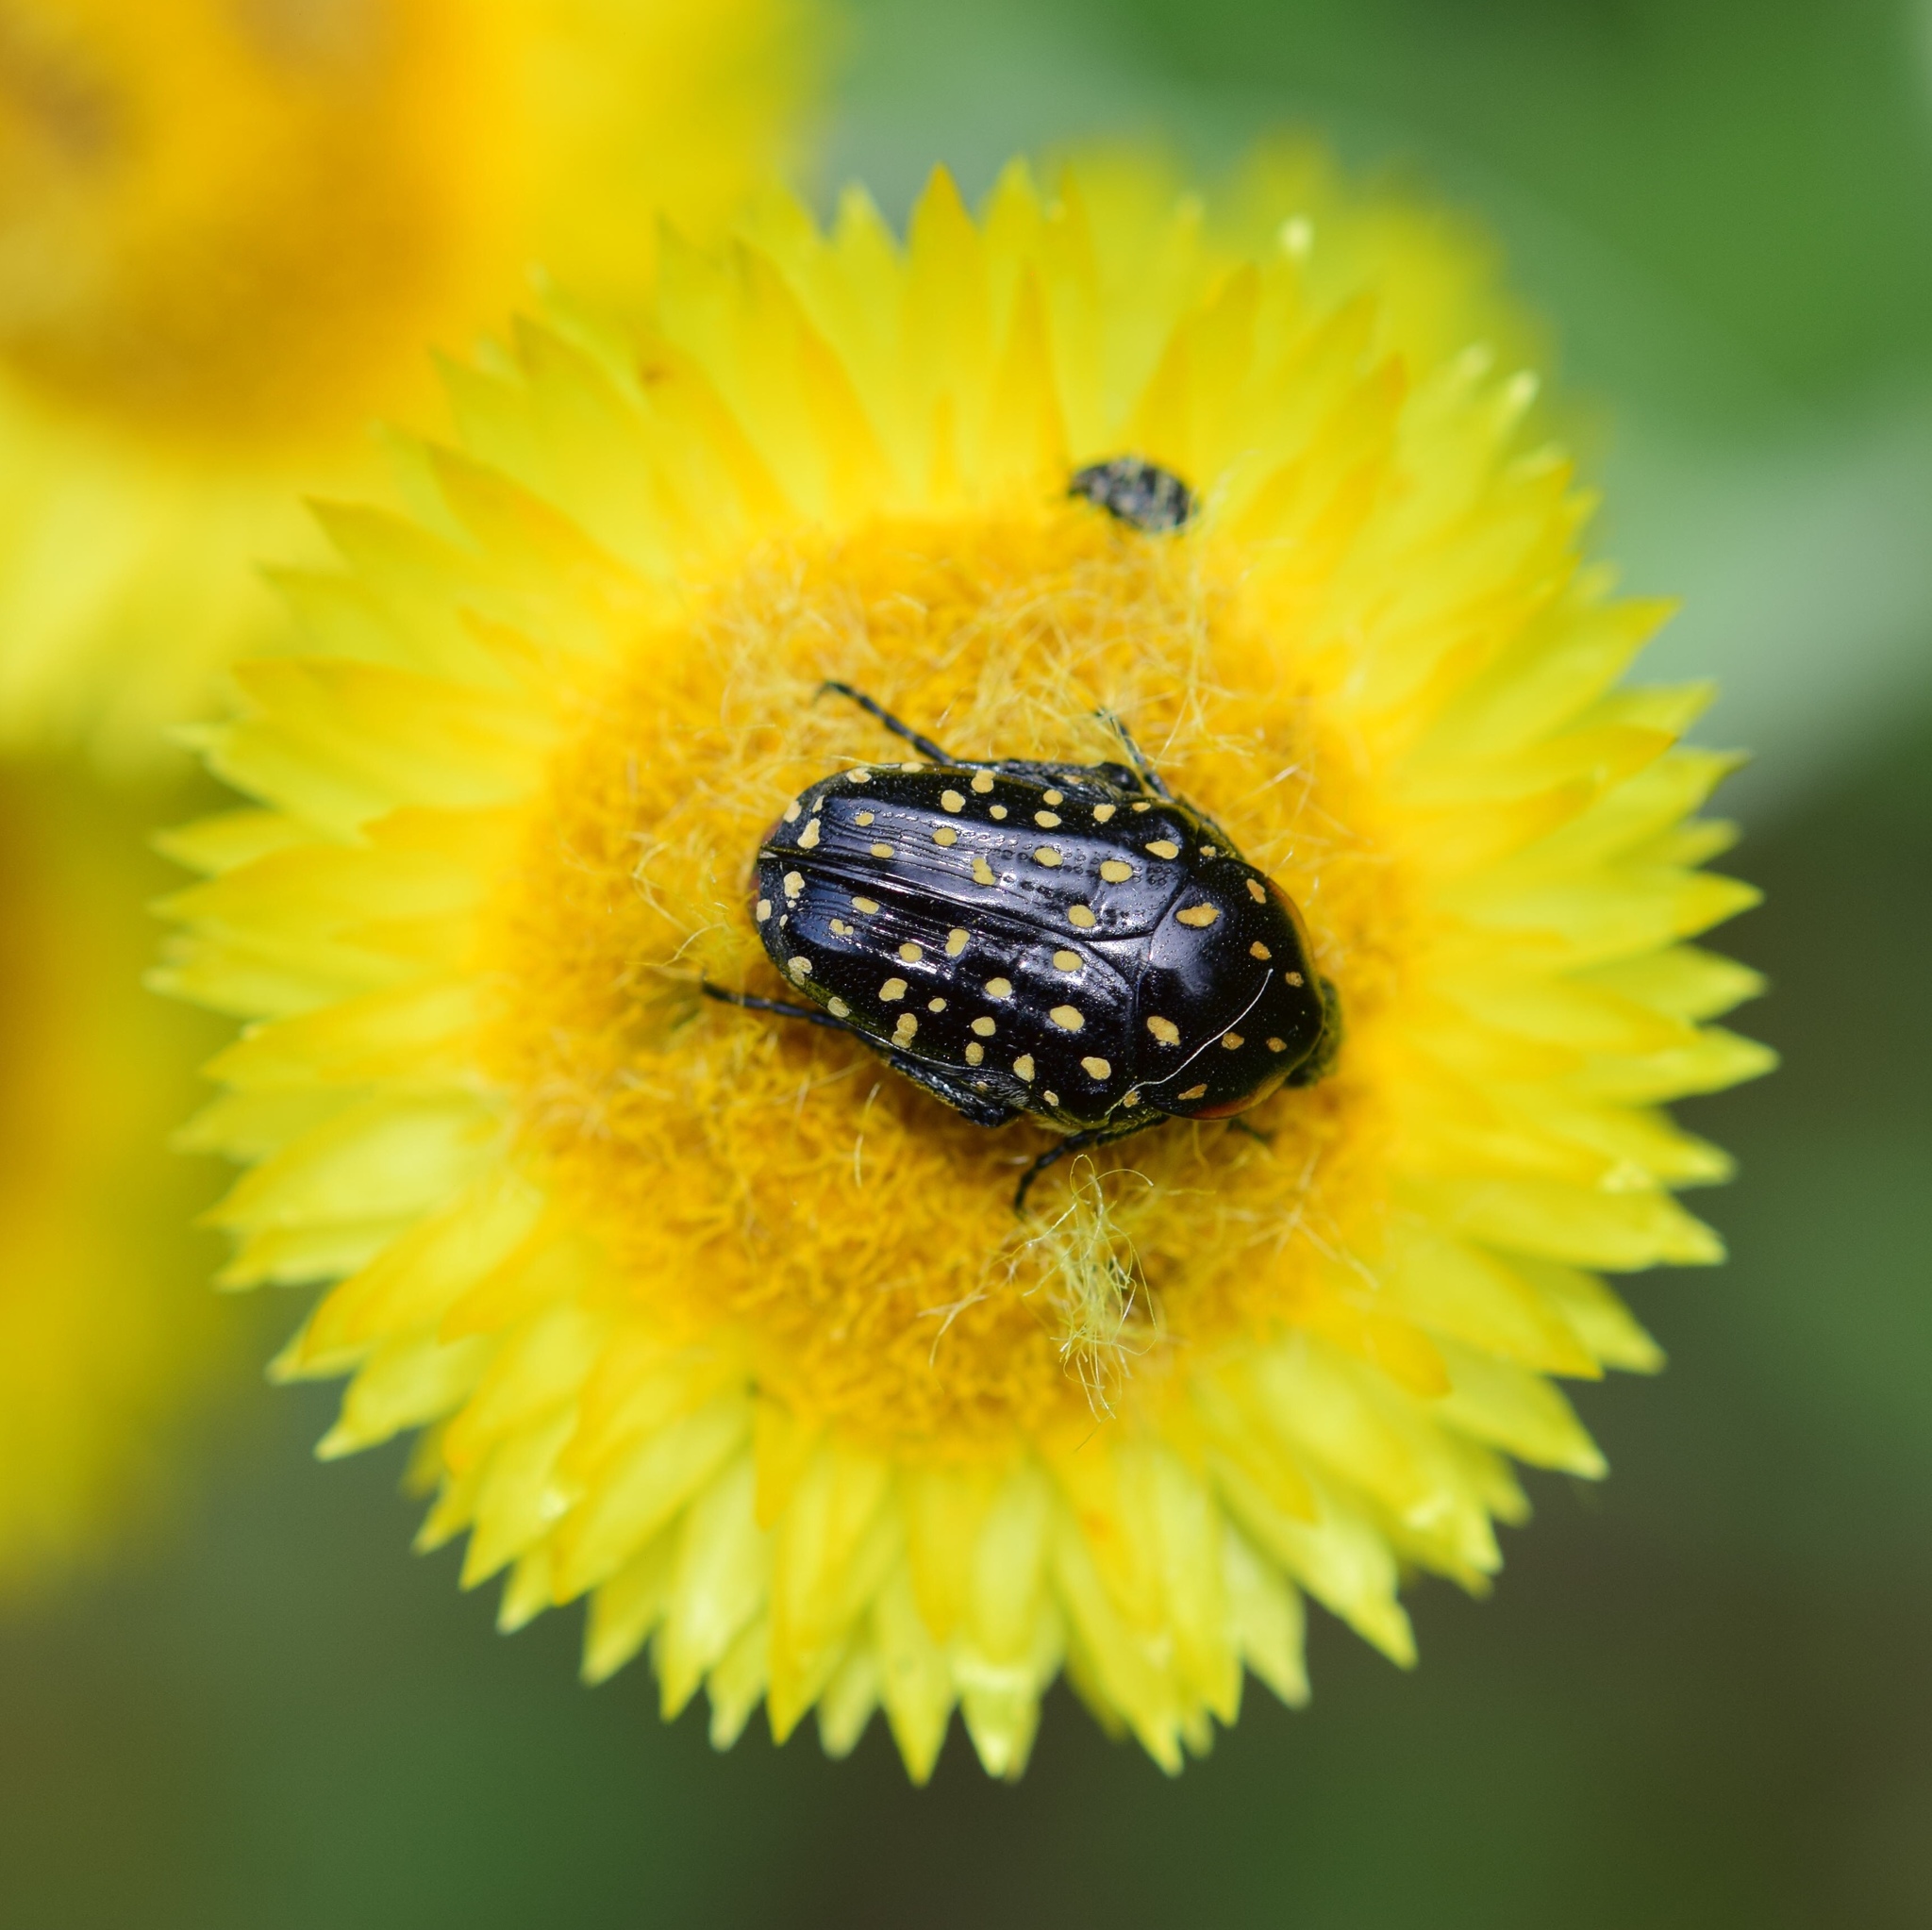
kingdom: Animalia
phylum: Arthropoda
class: Insecta
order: Coleoptera
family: Scarabaeidae
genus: Oxythyrea
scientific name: Oxythyrea
